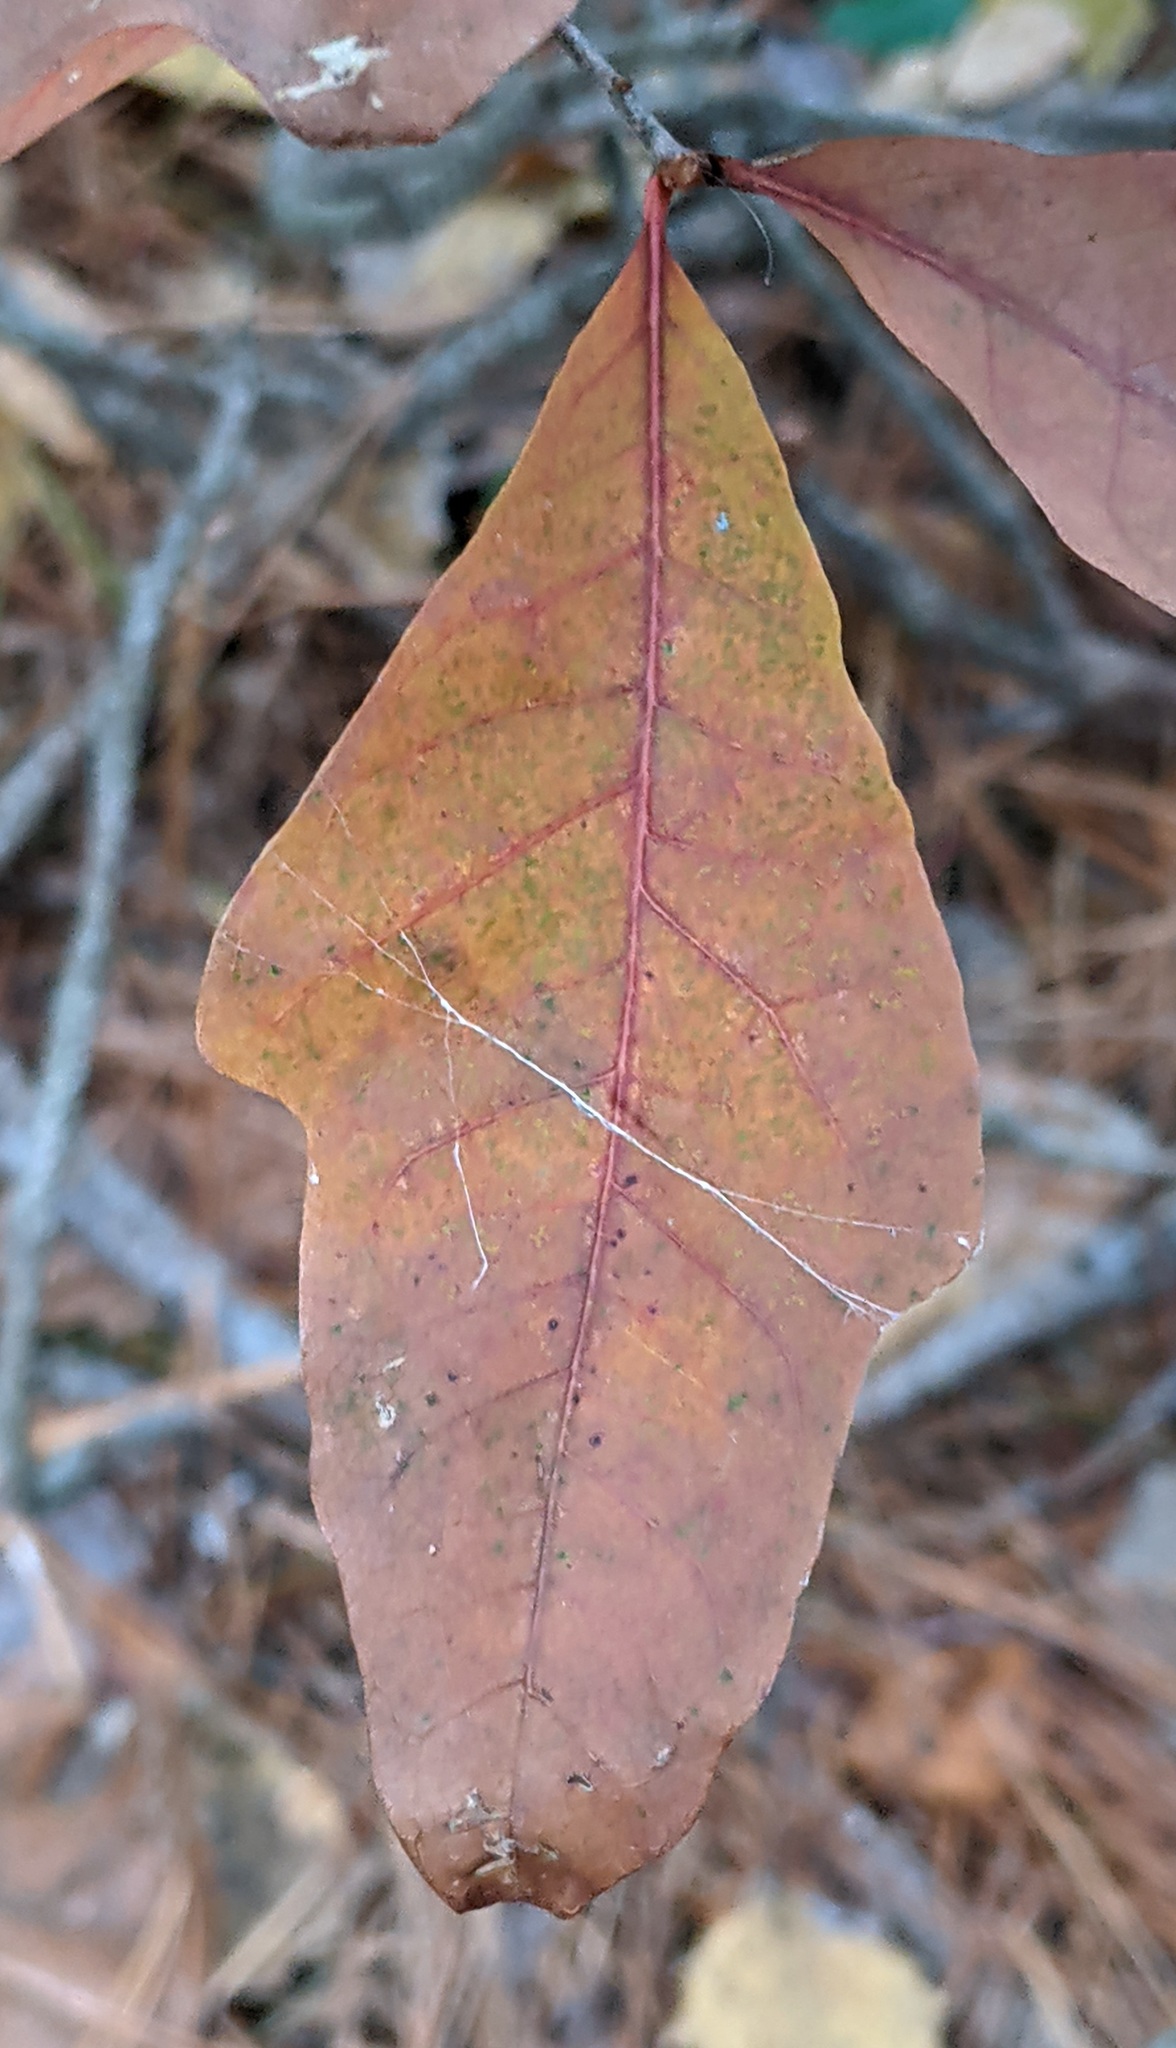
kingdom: Plantae
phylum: Tracheophyta
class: Magnoliopsida
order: Fagales
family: Fagaceae
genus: Quercus
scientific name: Quercus alba
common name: White oak
